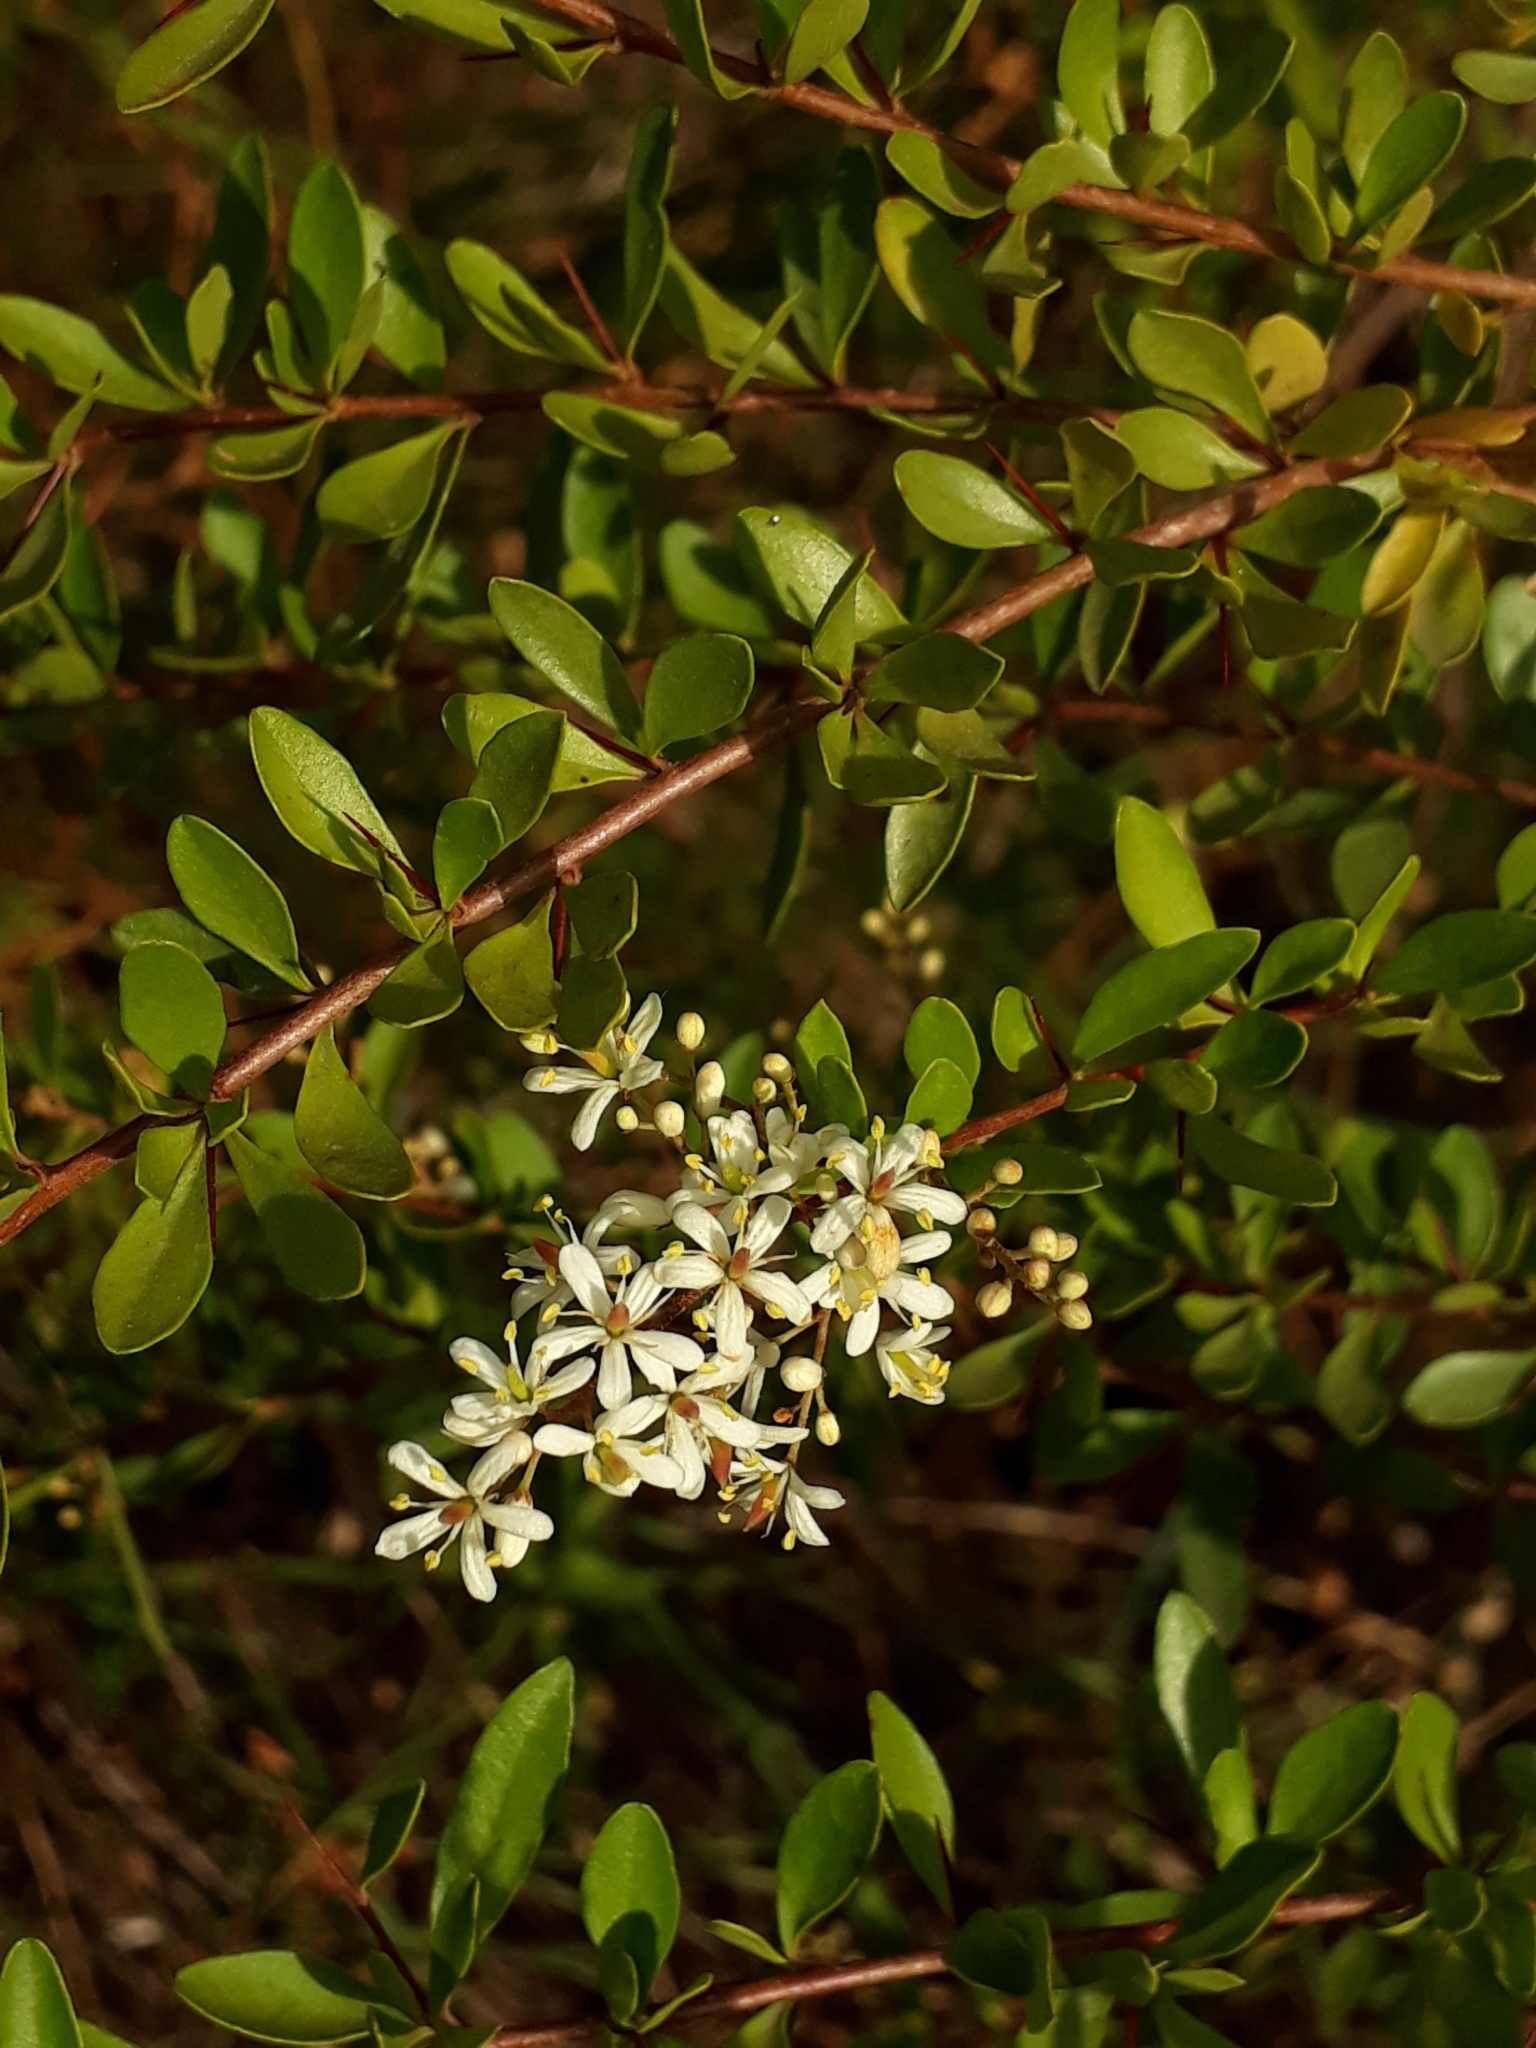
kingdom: Plantae
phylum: Tracheophyta
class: Magnoliopsida
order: Apiales
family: Pittosporaceae
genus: Bursaria
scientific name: Bursaria spinosa
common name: Australian blackthorn
